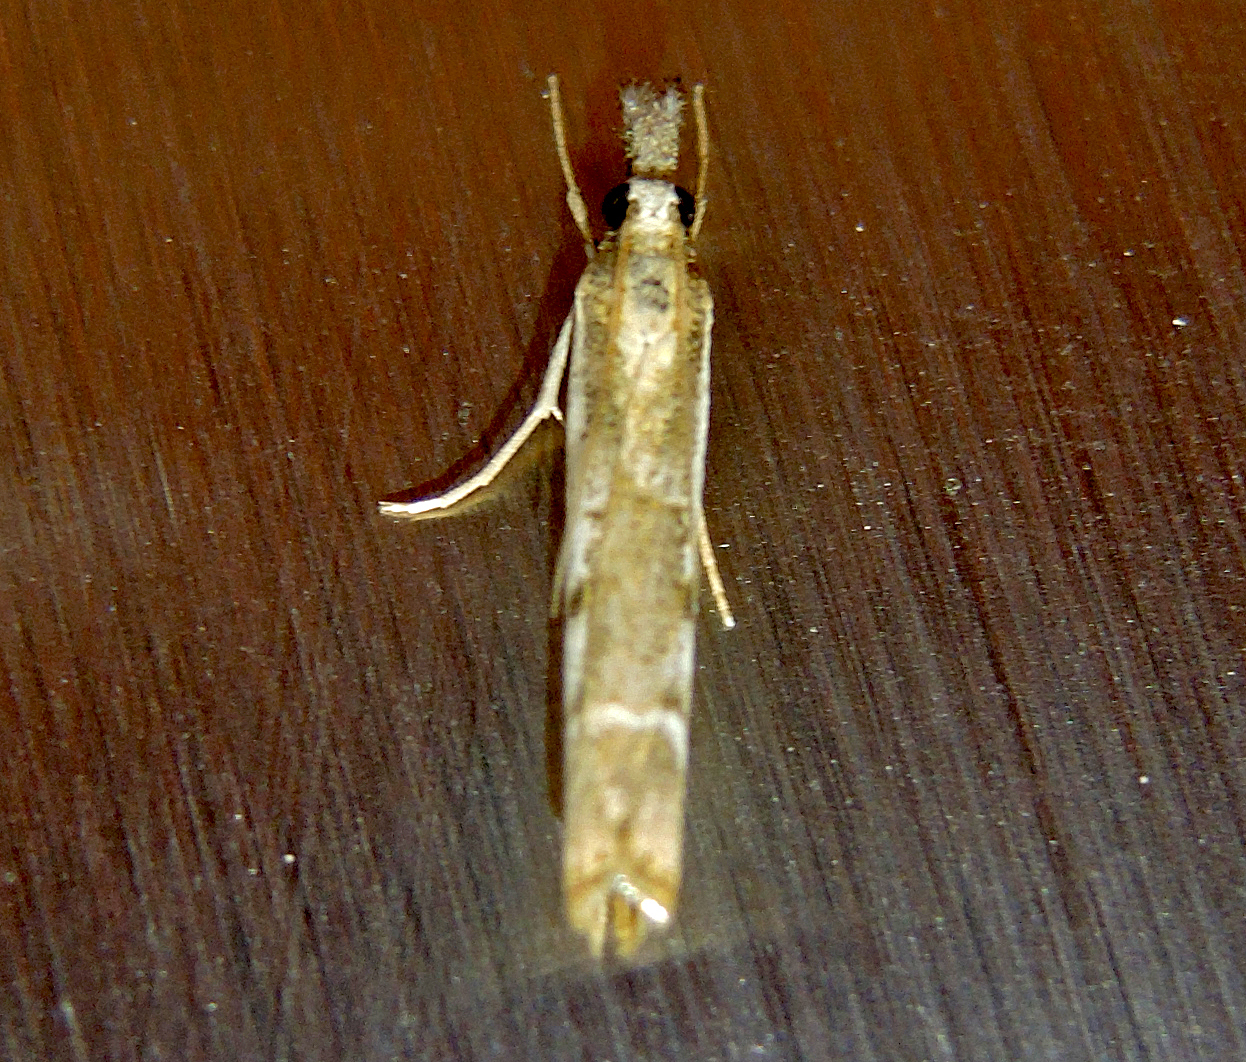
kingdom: Animalia
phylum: Arthropoda
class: Insecta
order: Lepidoptera
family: Crambidae
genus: Platytes
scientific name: Platytes alpinella
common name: Hook-tipped grass-veneer
